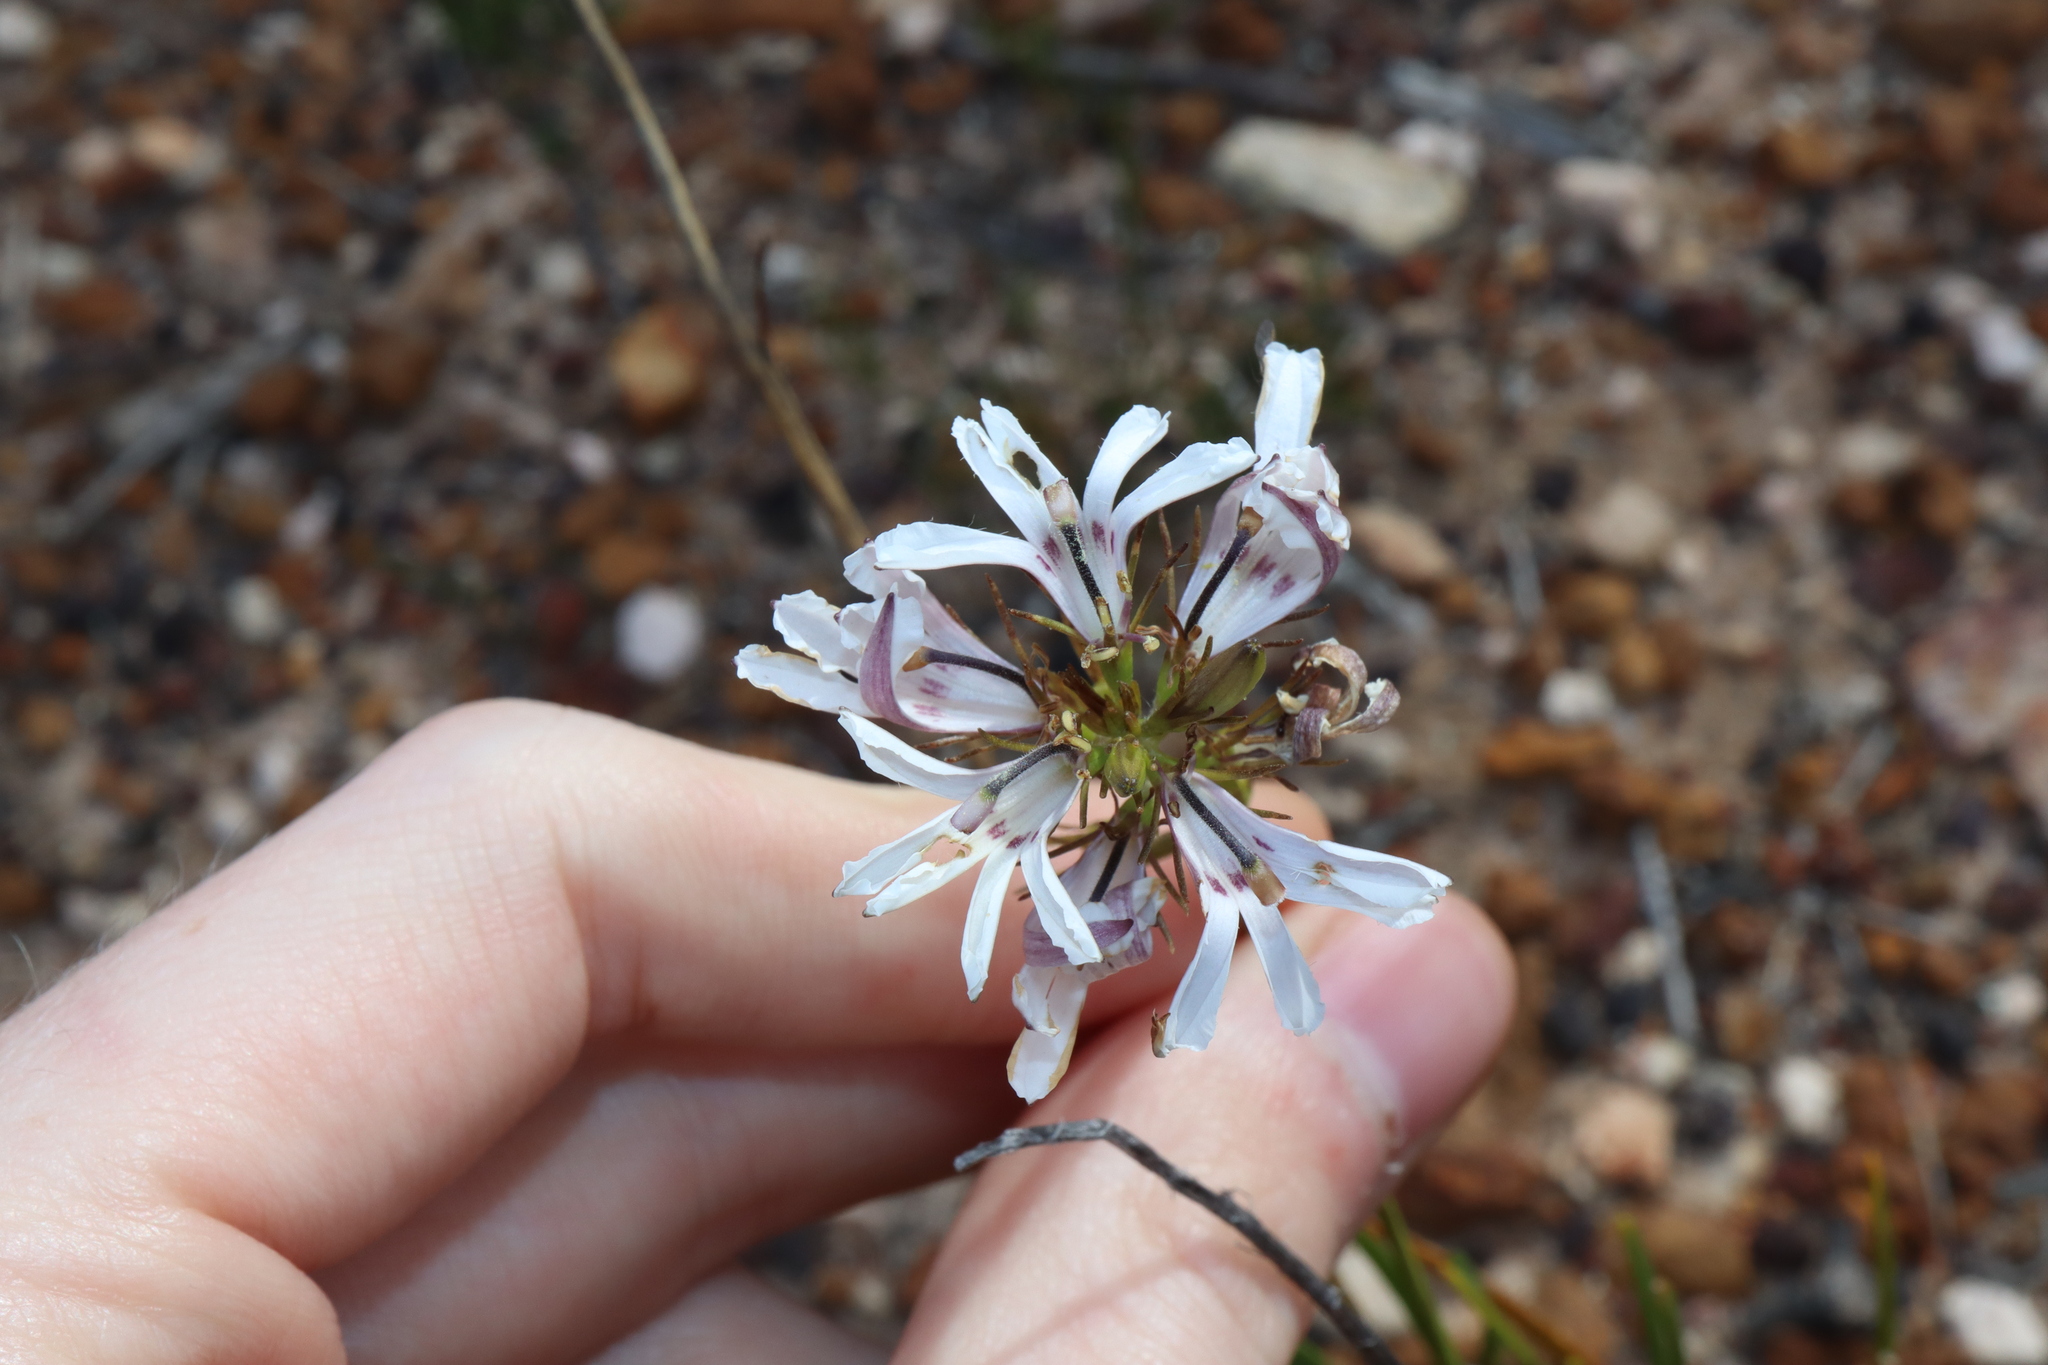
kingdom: Plantae
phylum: Tracheophyta
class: Magnoliopsida
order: Asterales
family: Goodeniaceae
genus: Goodenia
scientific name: Goodenia scapigera
